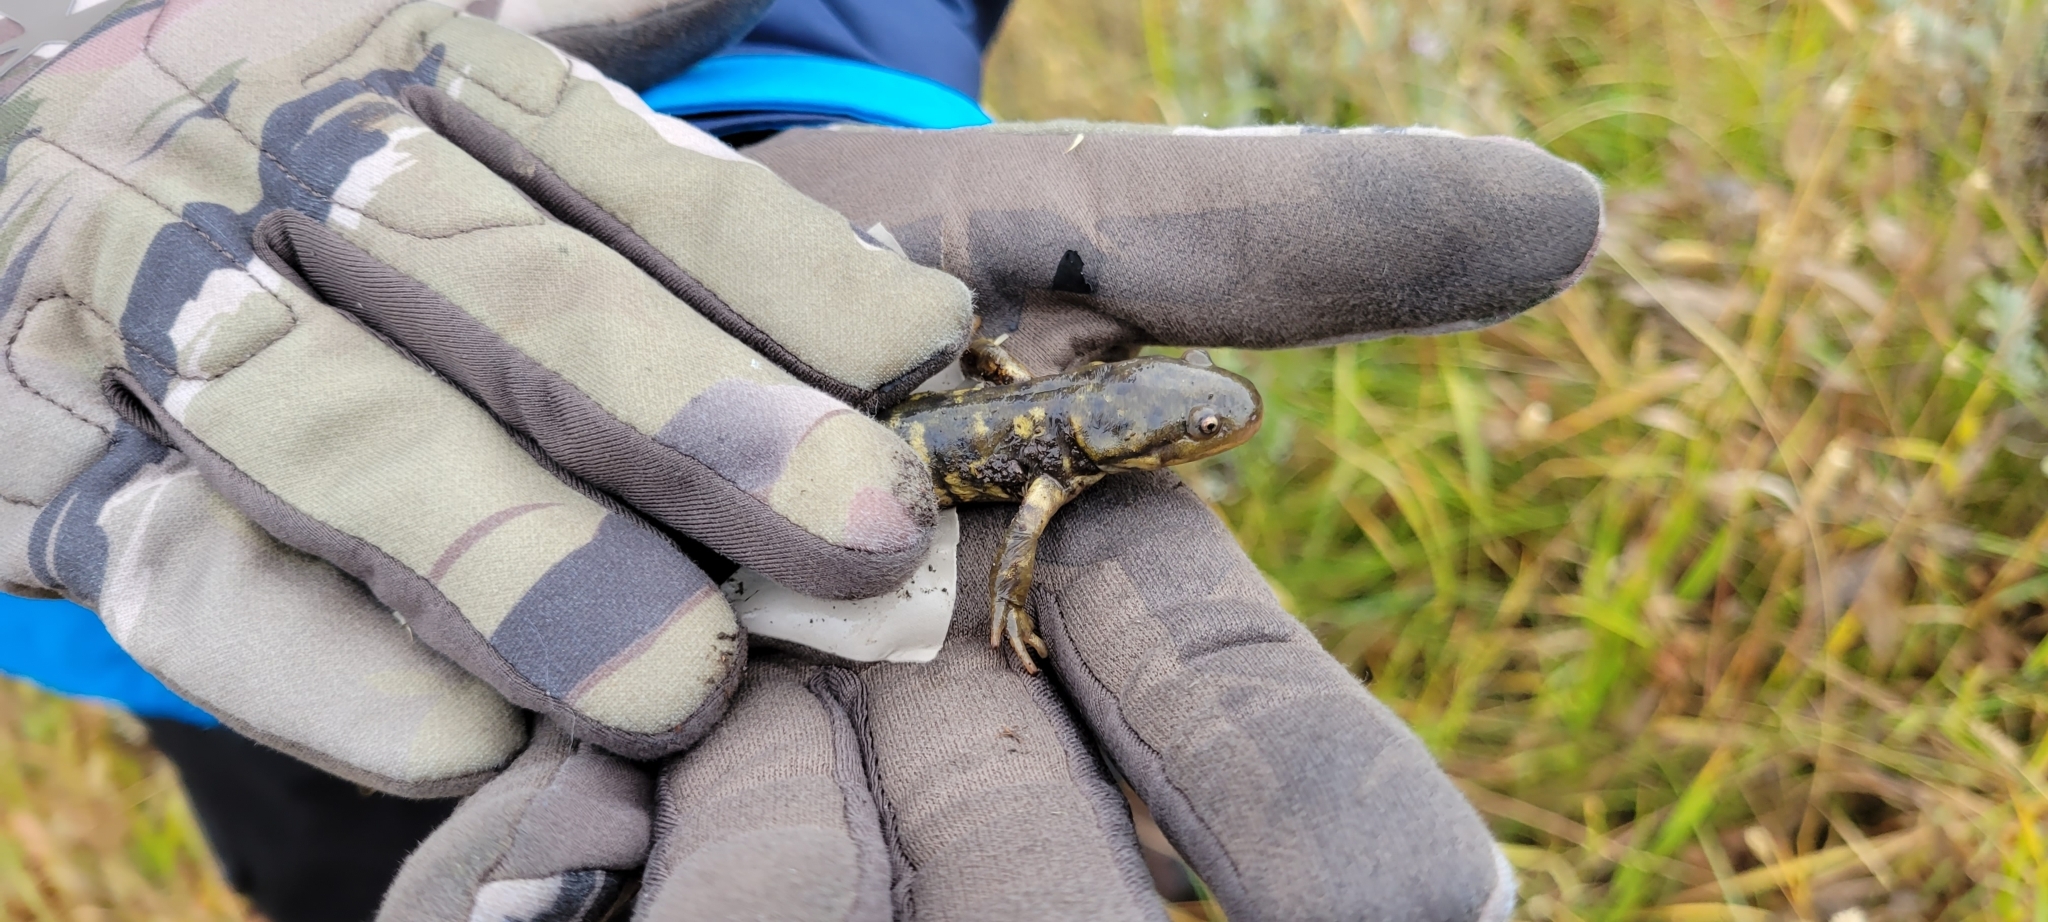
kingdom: Animalia
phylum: Chordata
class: Amphibia
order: Caudata
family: Ambystomatidae
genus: Ambystoma
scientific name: Ambystoma mavortium
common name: Western tiger salamander
